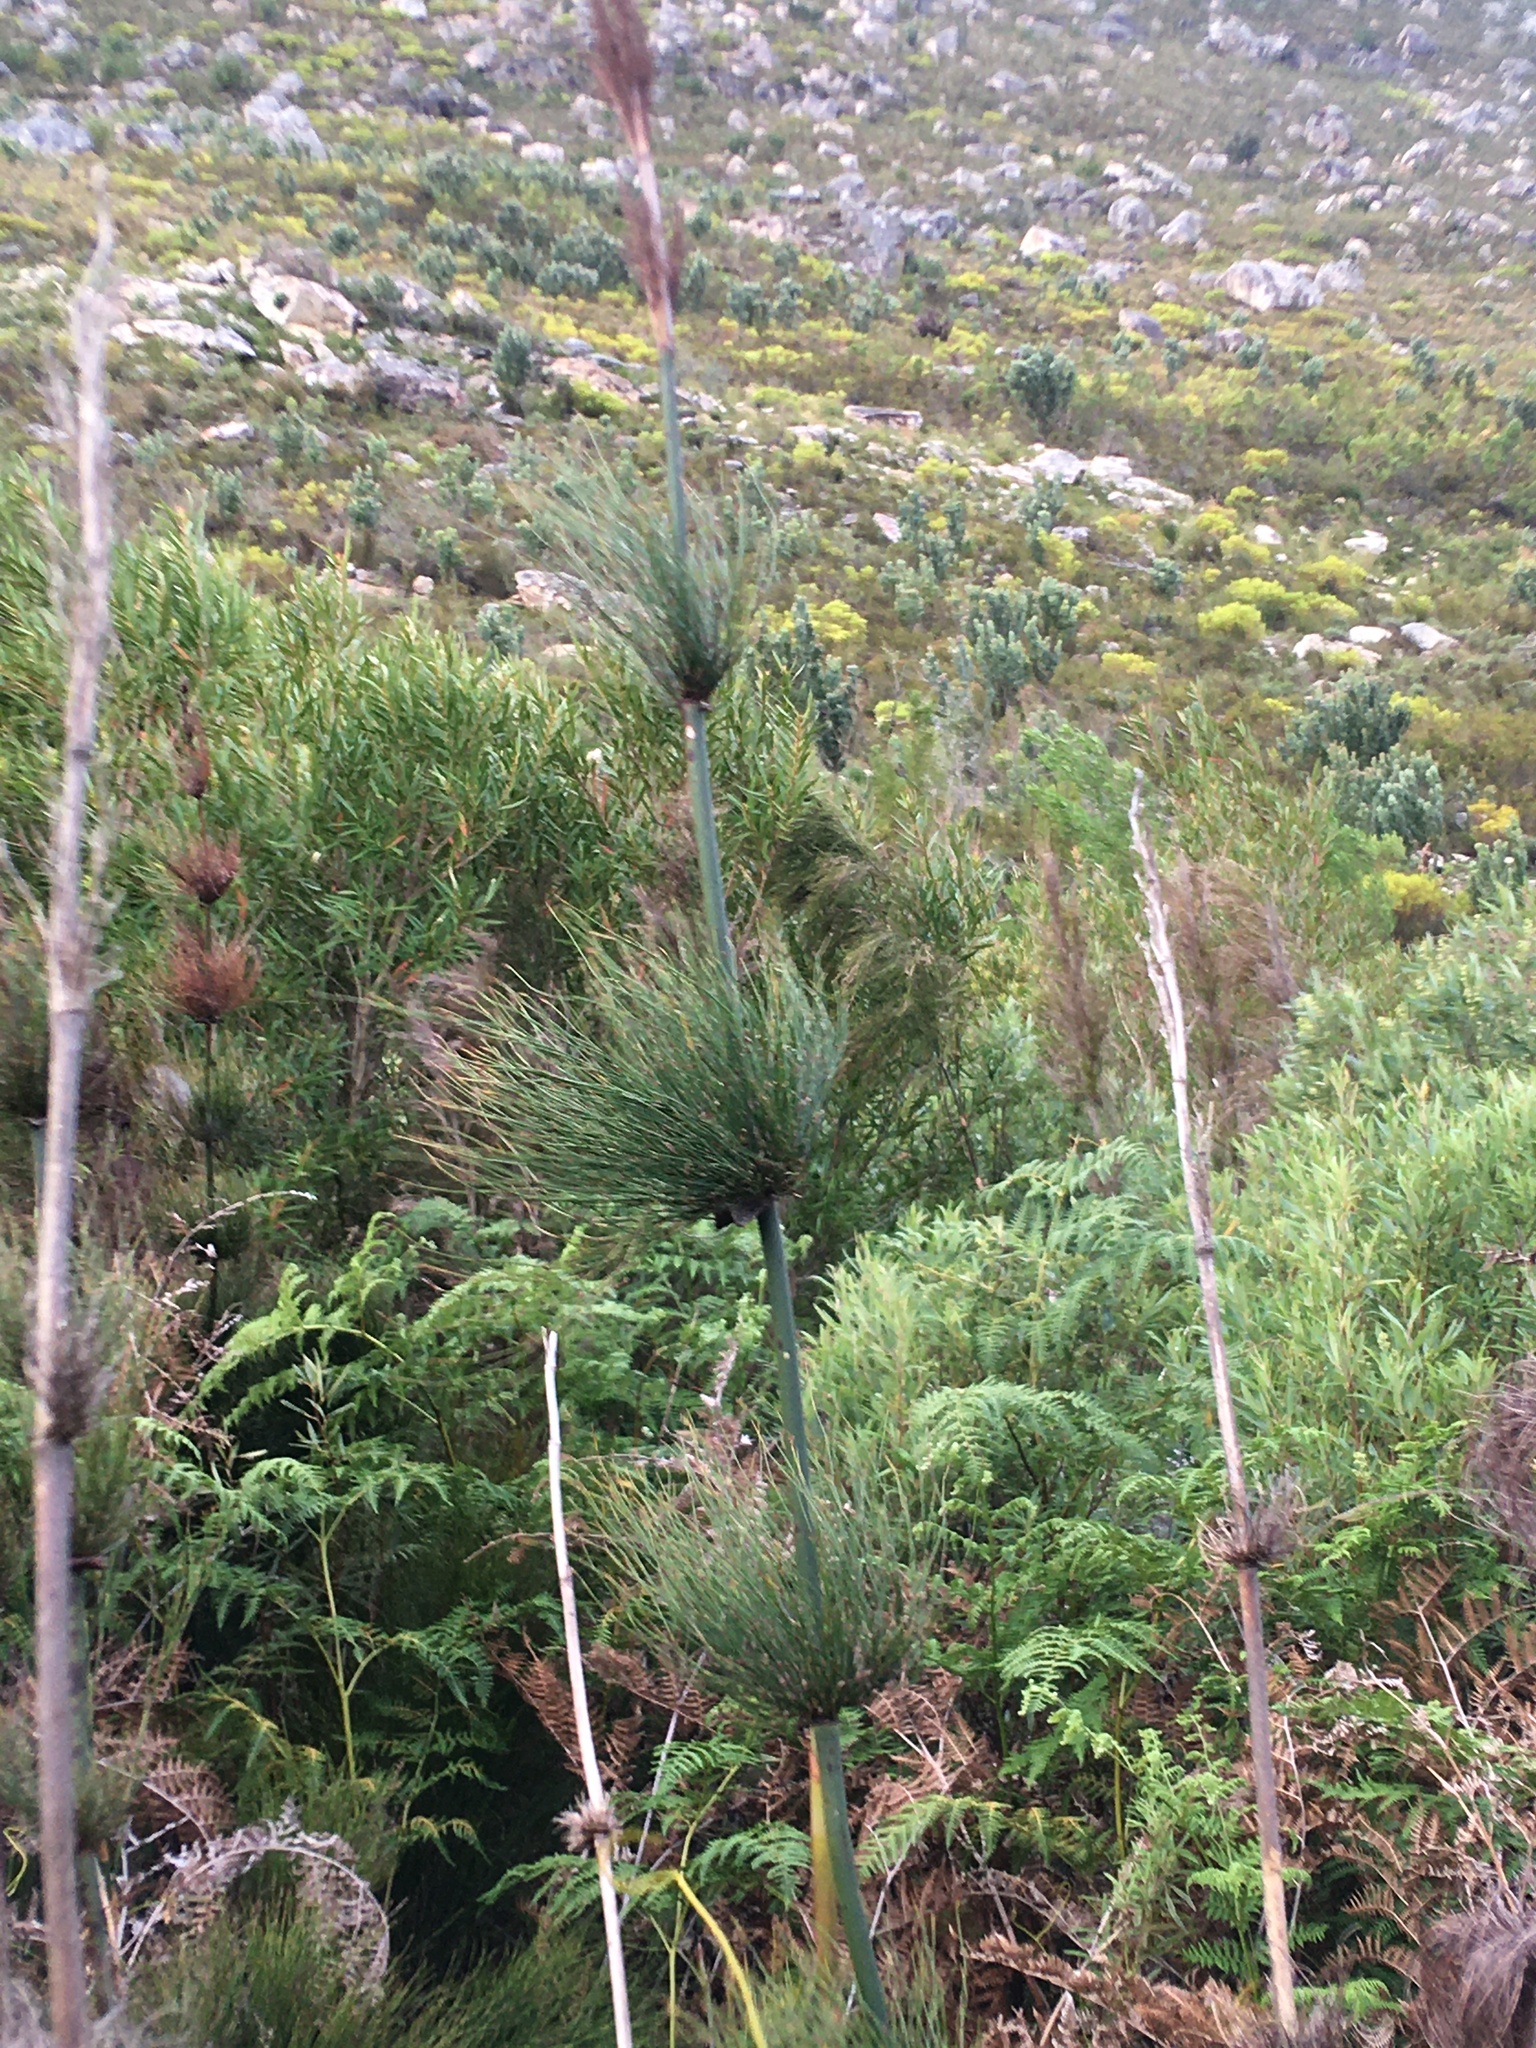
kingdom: Plantae
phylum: Tracheophyta
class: Liliopsida
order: Poales
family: Restionaceae
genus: Elegia
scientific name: Elegia capensis
